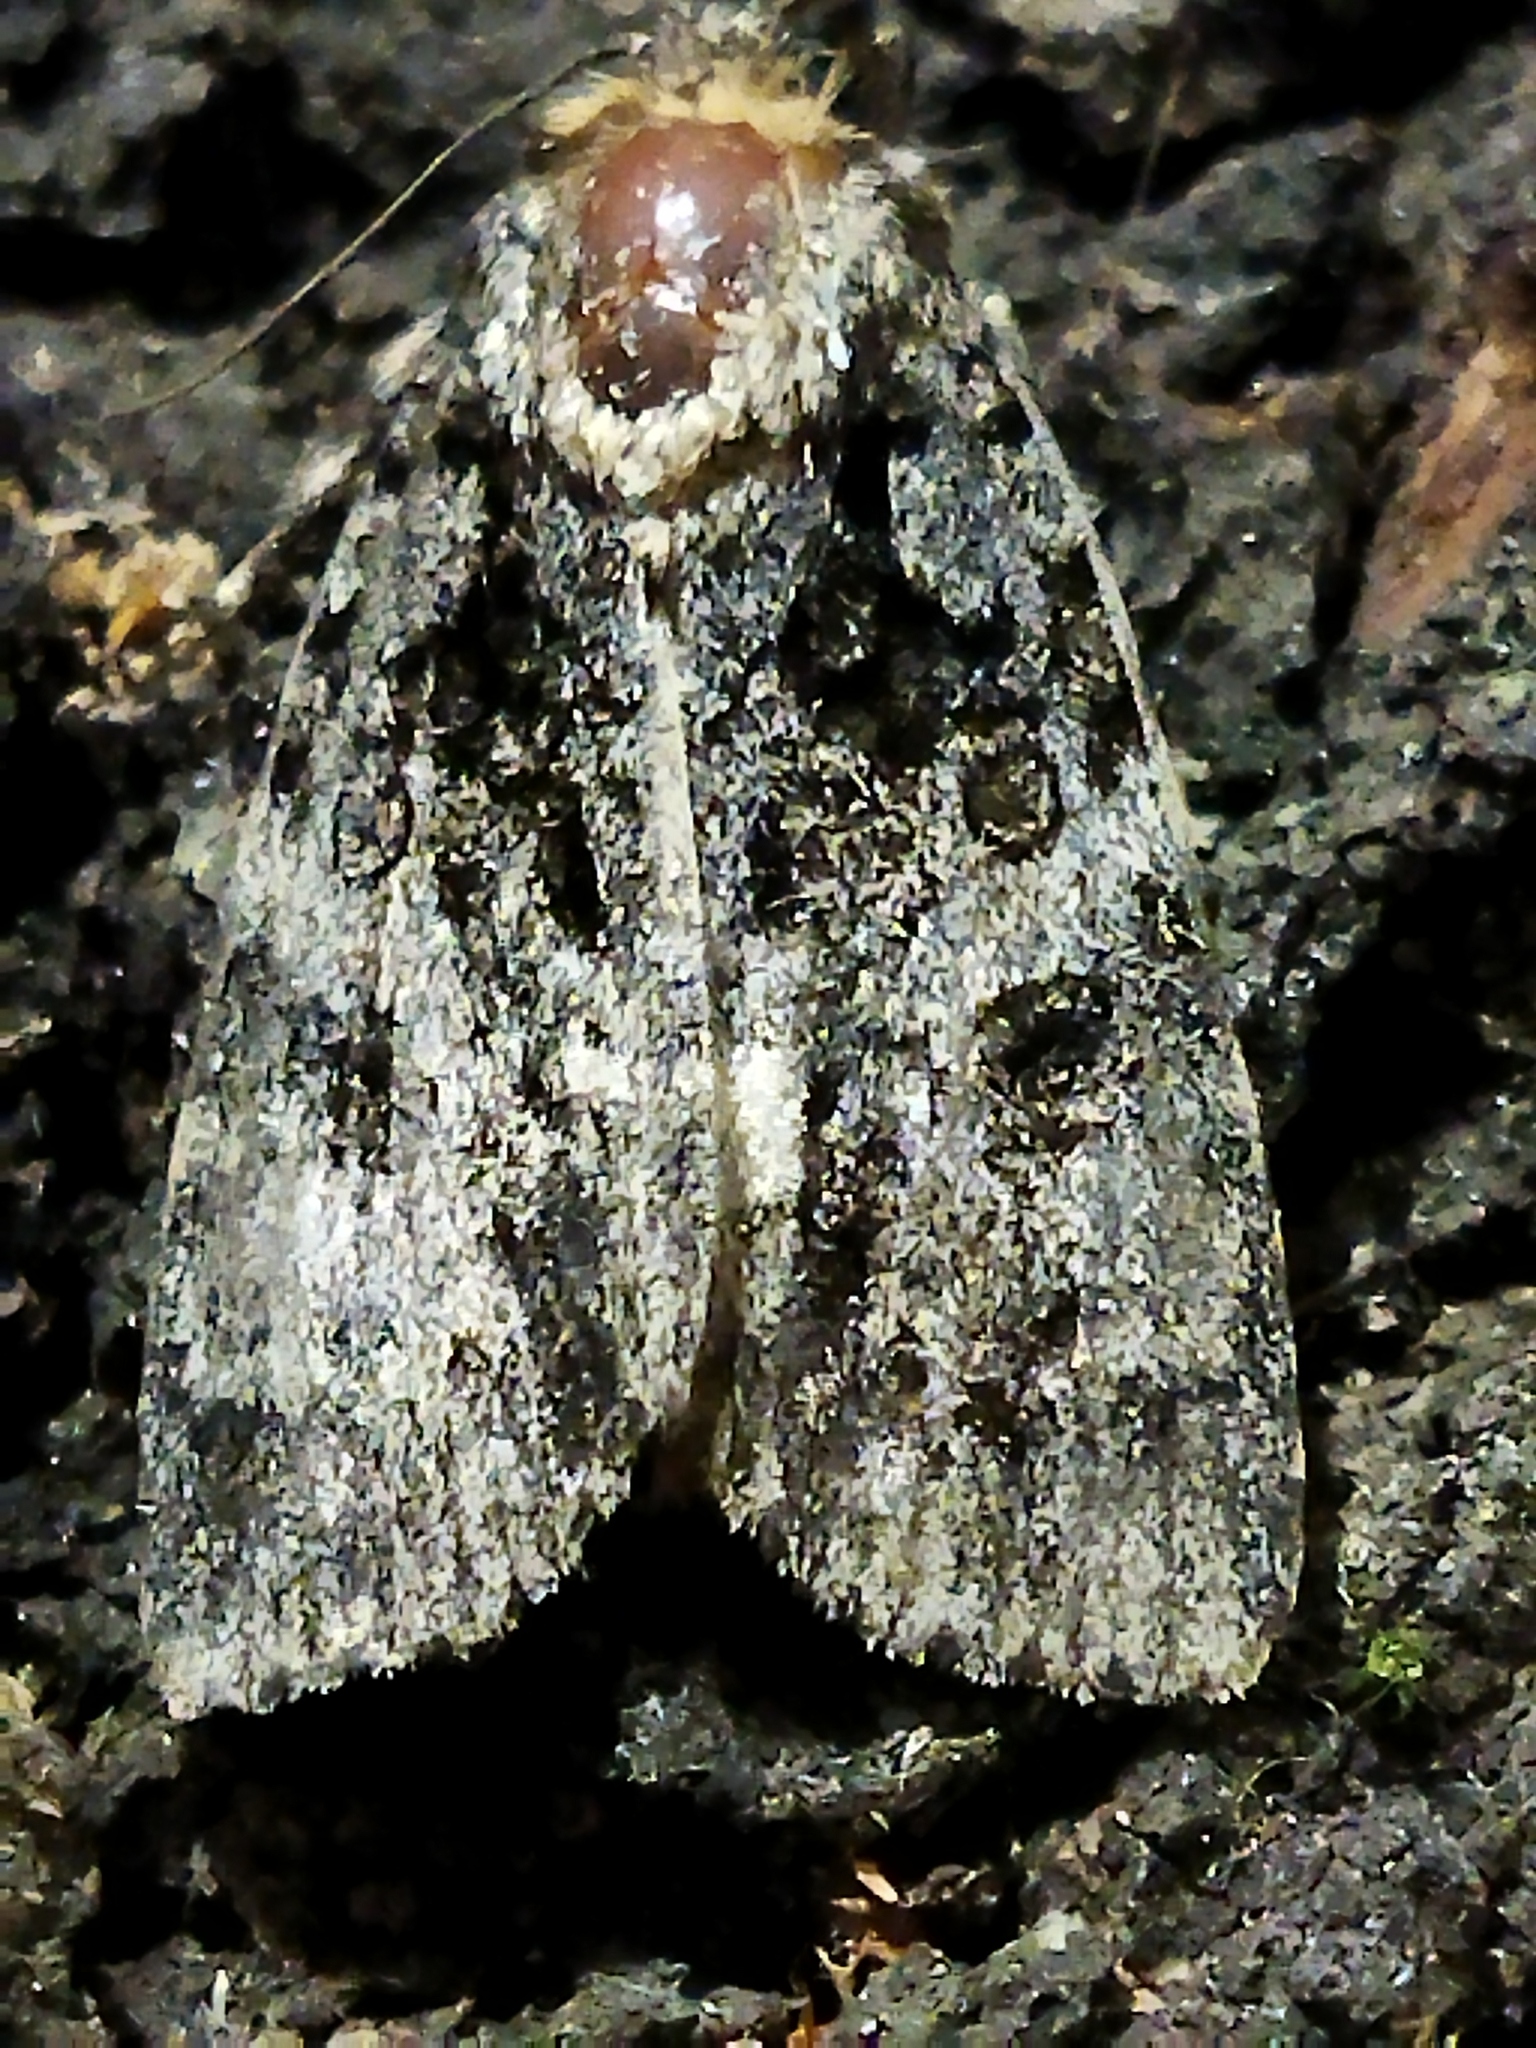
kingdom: Animalia
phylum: Arthropoda
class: Insecta
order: Lepidoptera
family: Noctuidae
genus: Acronicta
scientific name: Acronicta rumicis
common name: Knot grass
